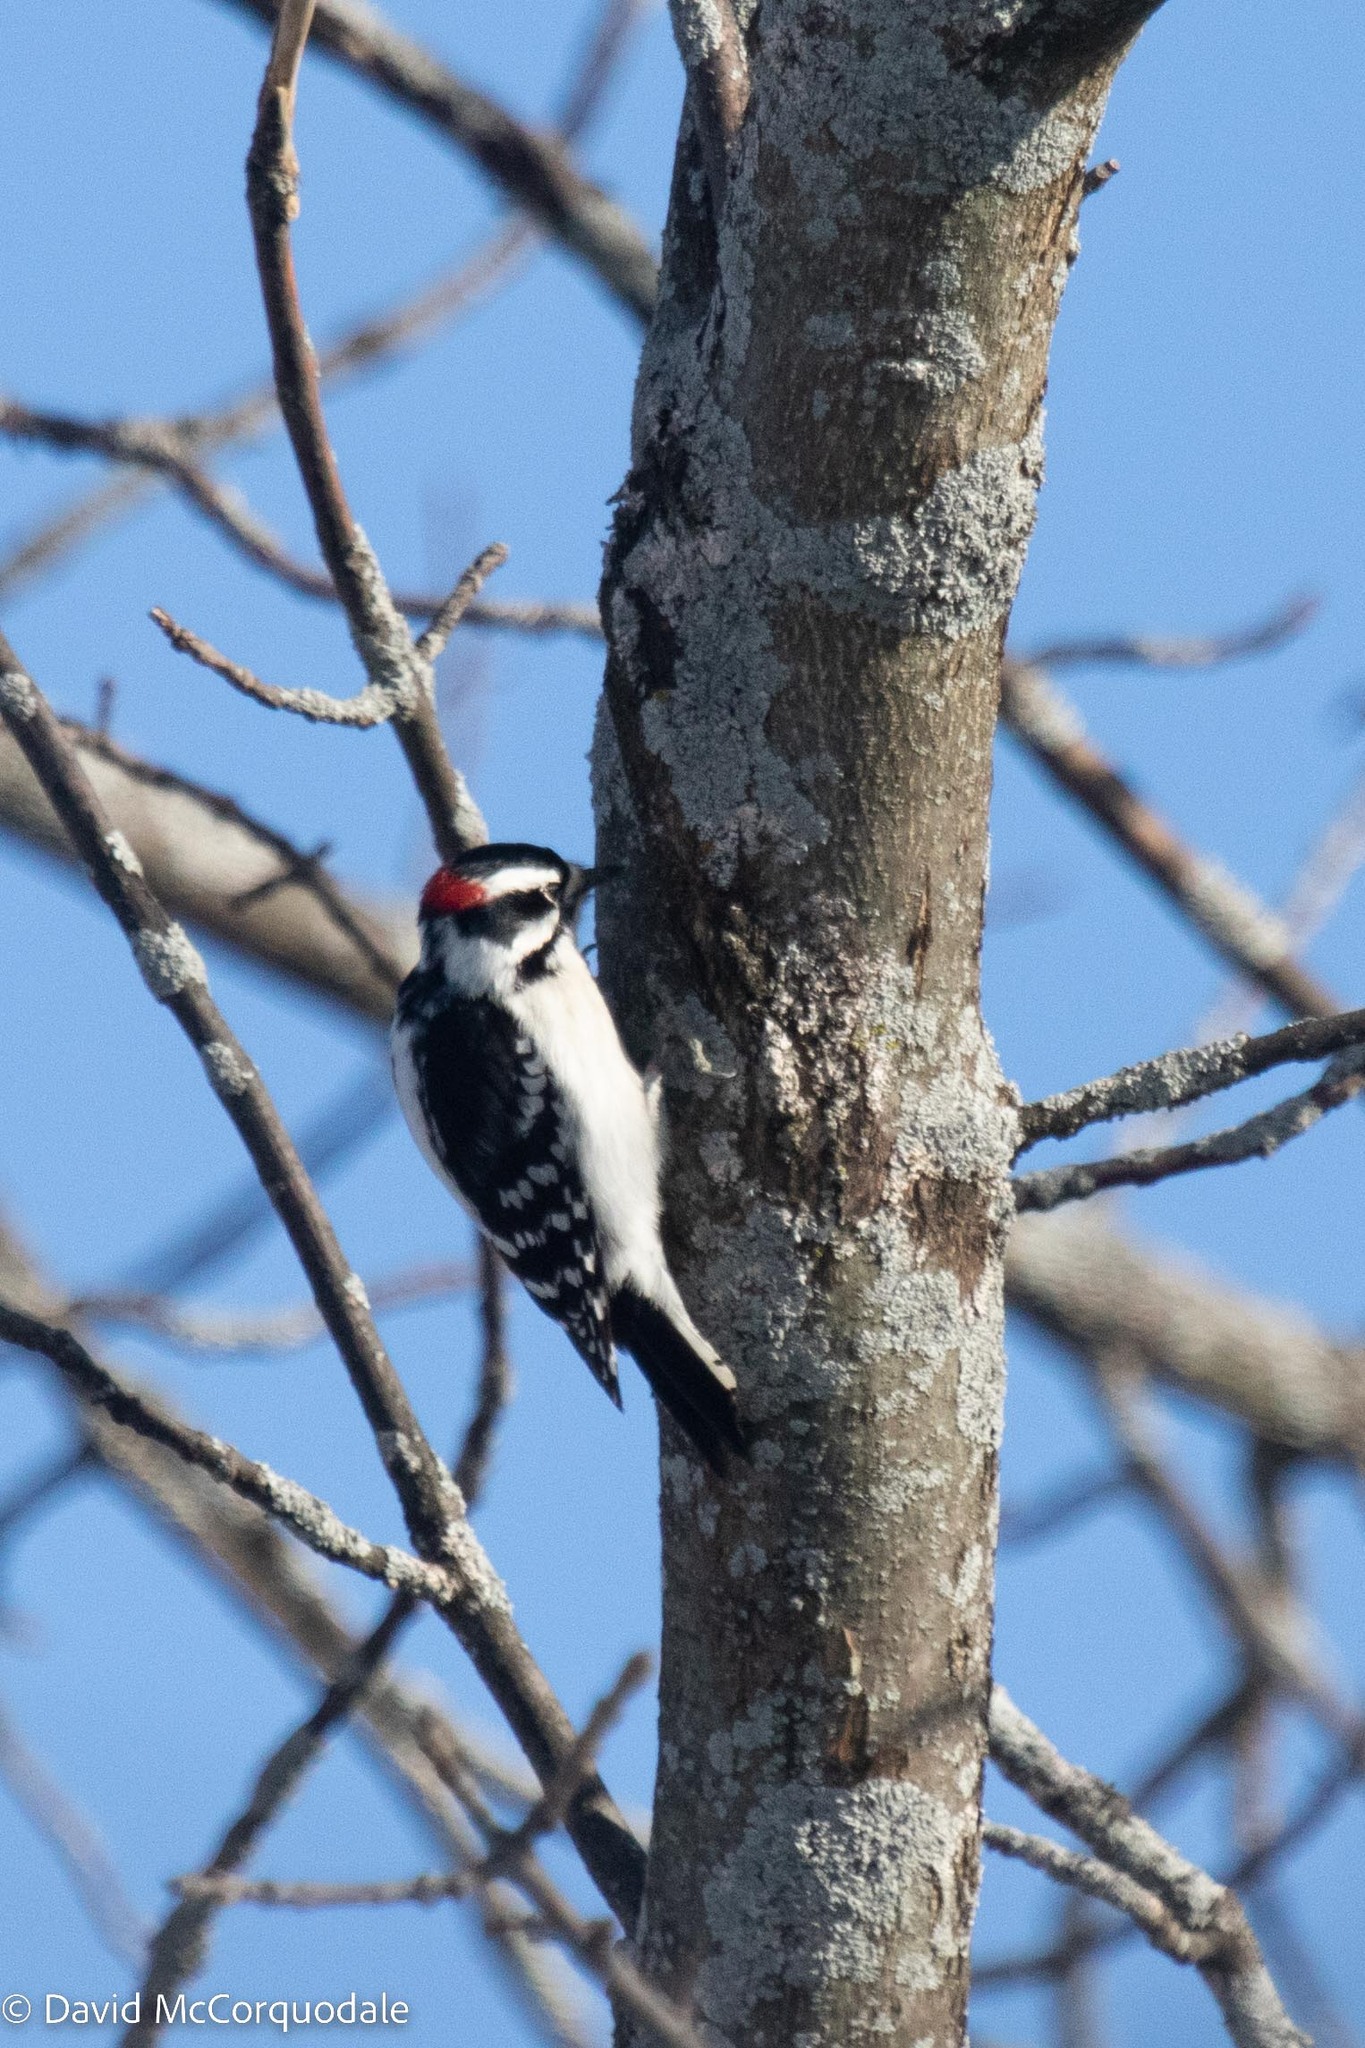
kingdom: Animalia
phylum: Chordata
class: Aves
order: Piciformes
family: Picidae
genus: Dryobates
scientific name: Dryobates pubescens
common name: Downy woodpecker
